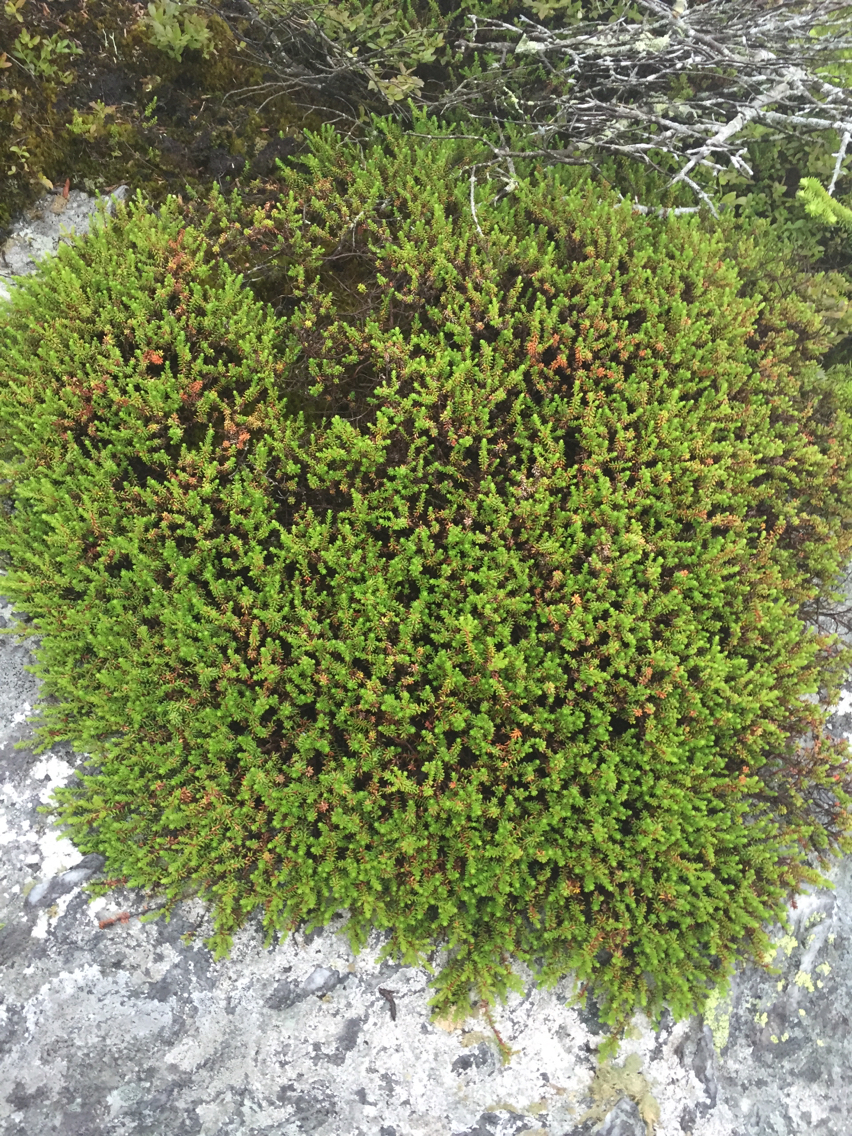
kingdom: Plantae
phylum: Tracheophyta
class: Magnoliopsida
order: Ericales
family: Ericaceae
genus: Empetrum
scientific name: Empetrum nigrum
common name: Black crowberry
